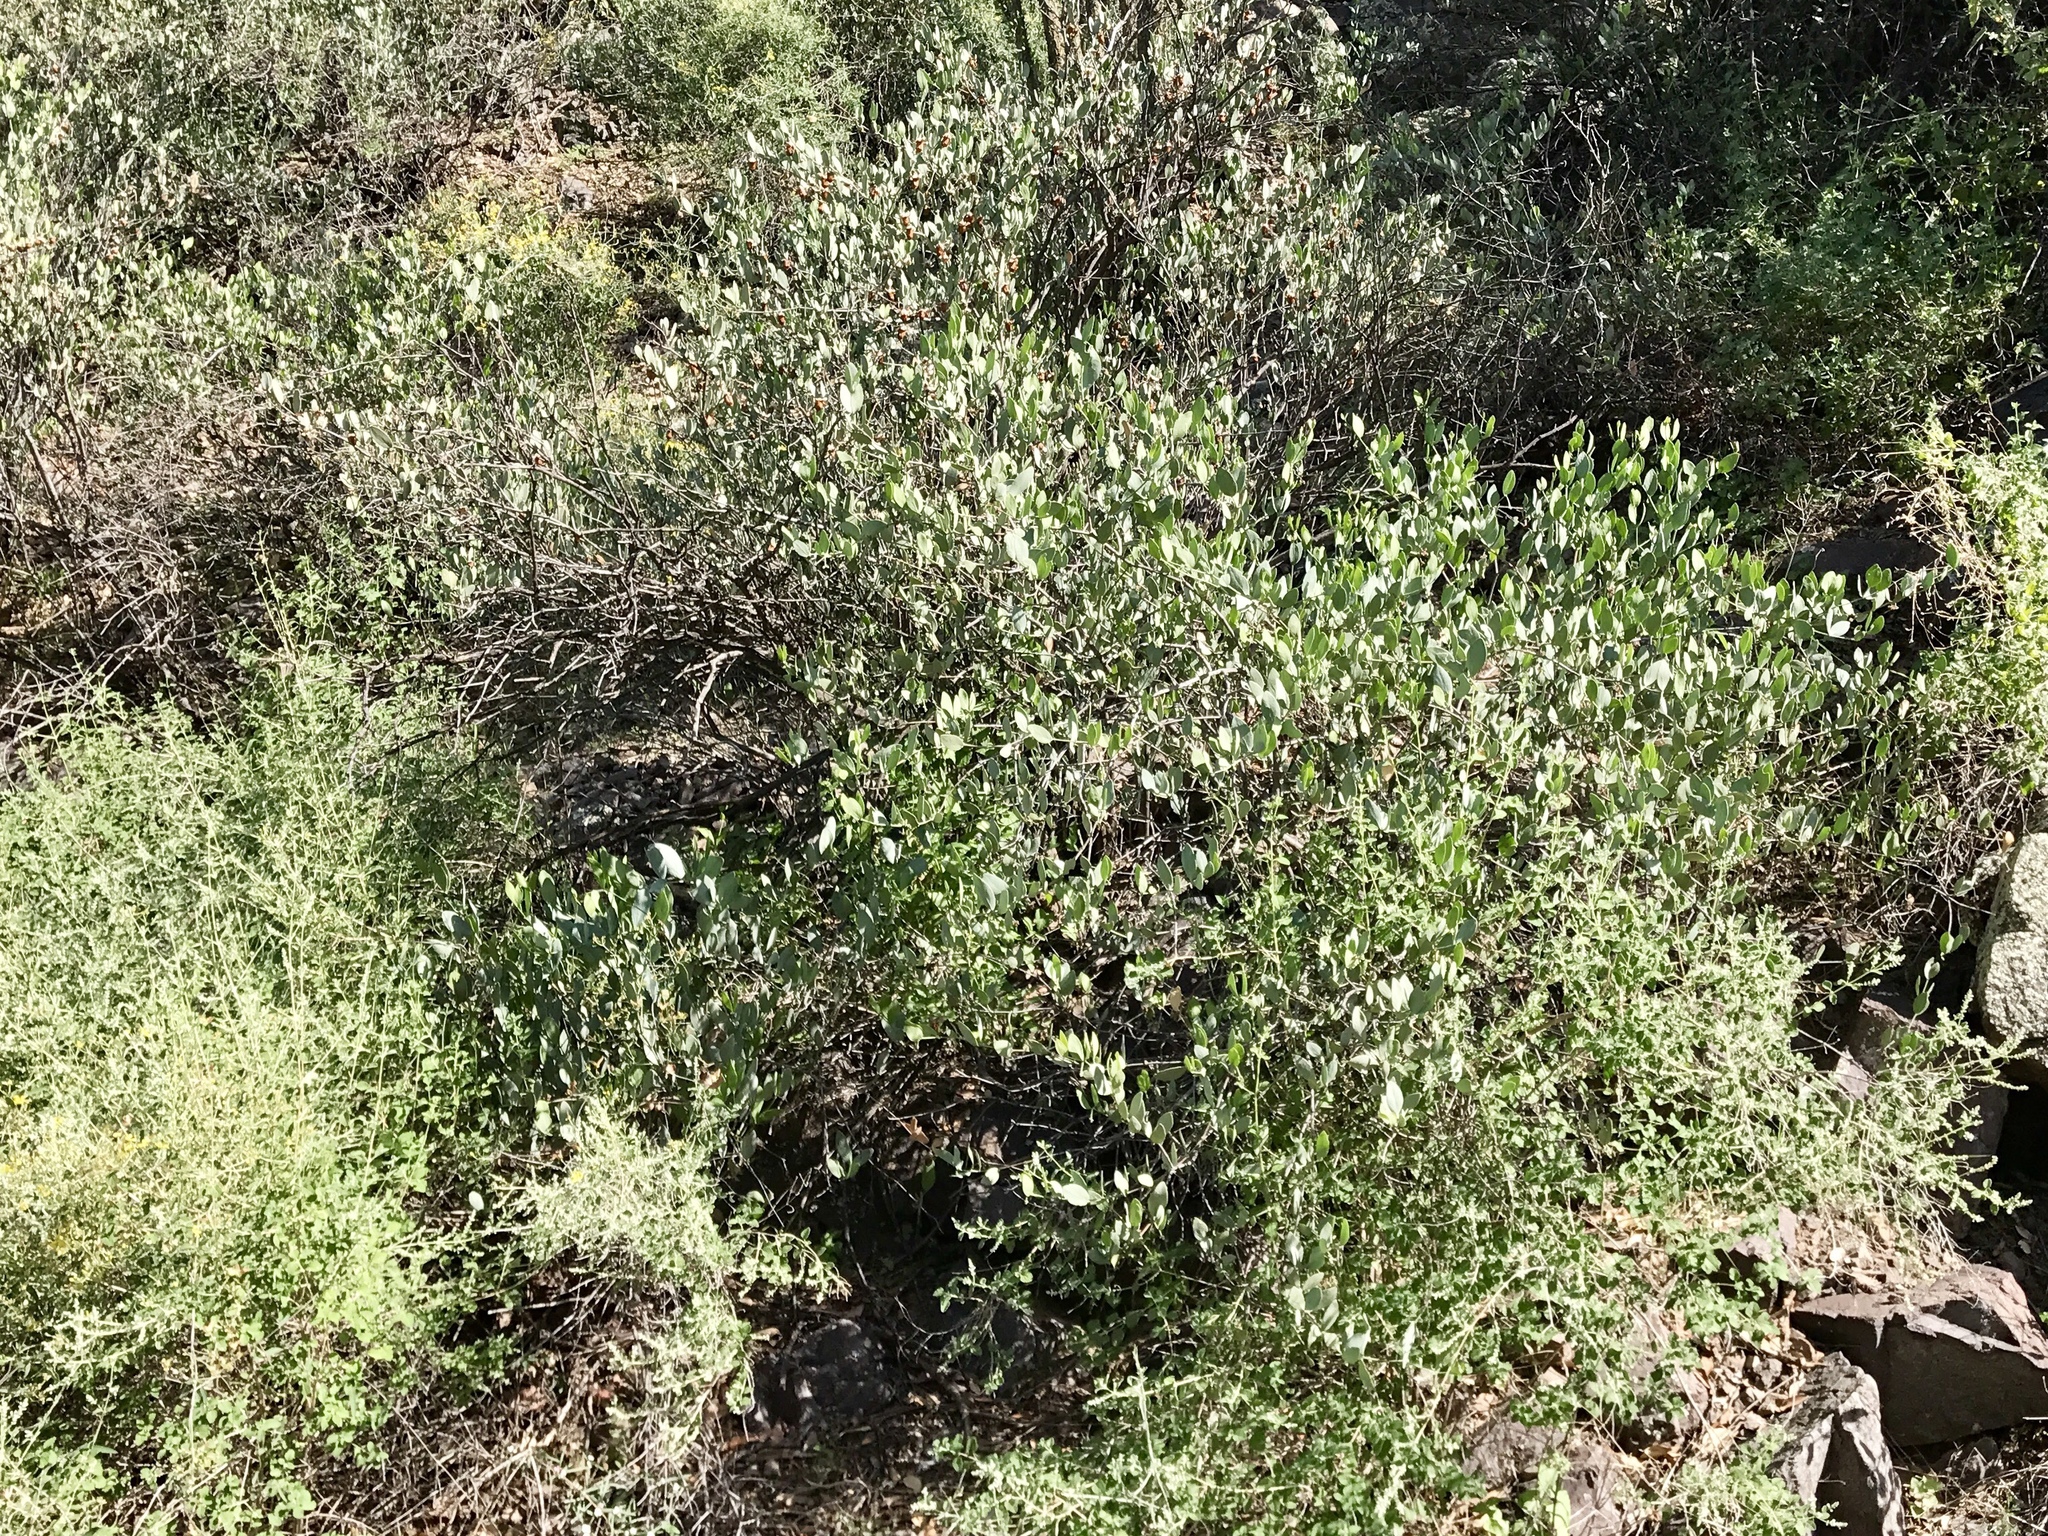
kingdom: Plantae
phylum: Tracheophyta
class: Magnoliopsida
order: Caryophyllales
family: Simmondsiaceae
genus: Simmondsia
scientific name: Simmondsia chinensis
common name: Jojoba
